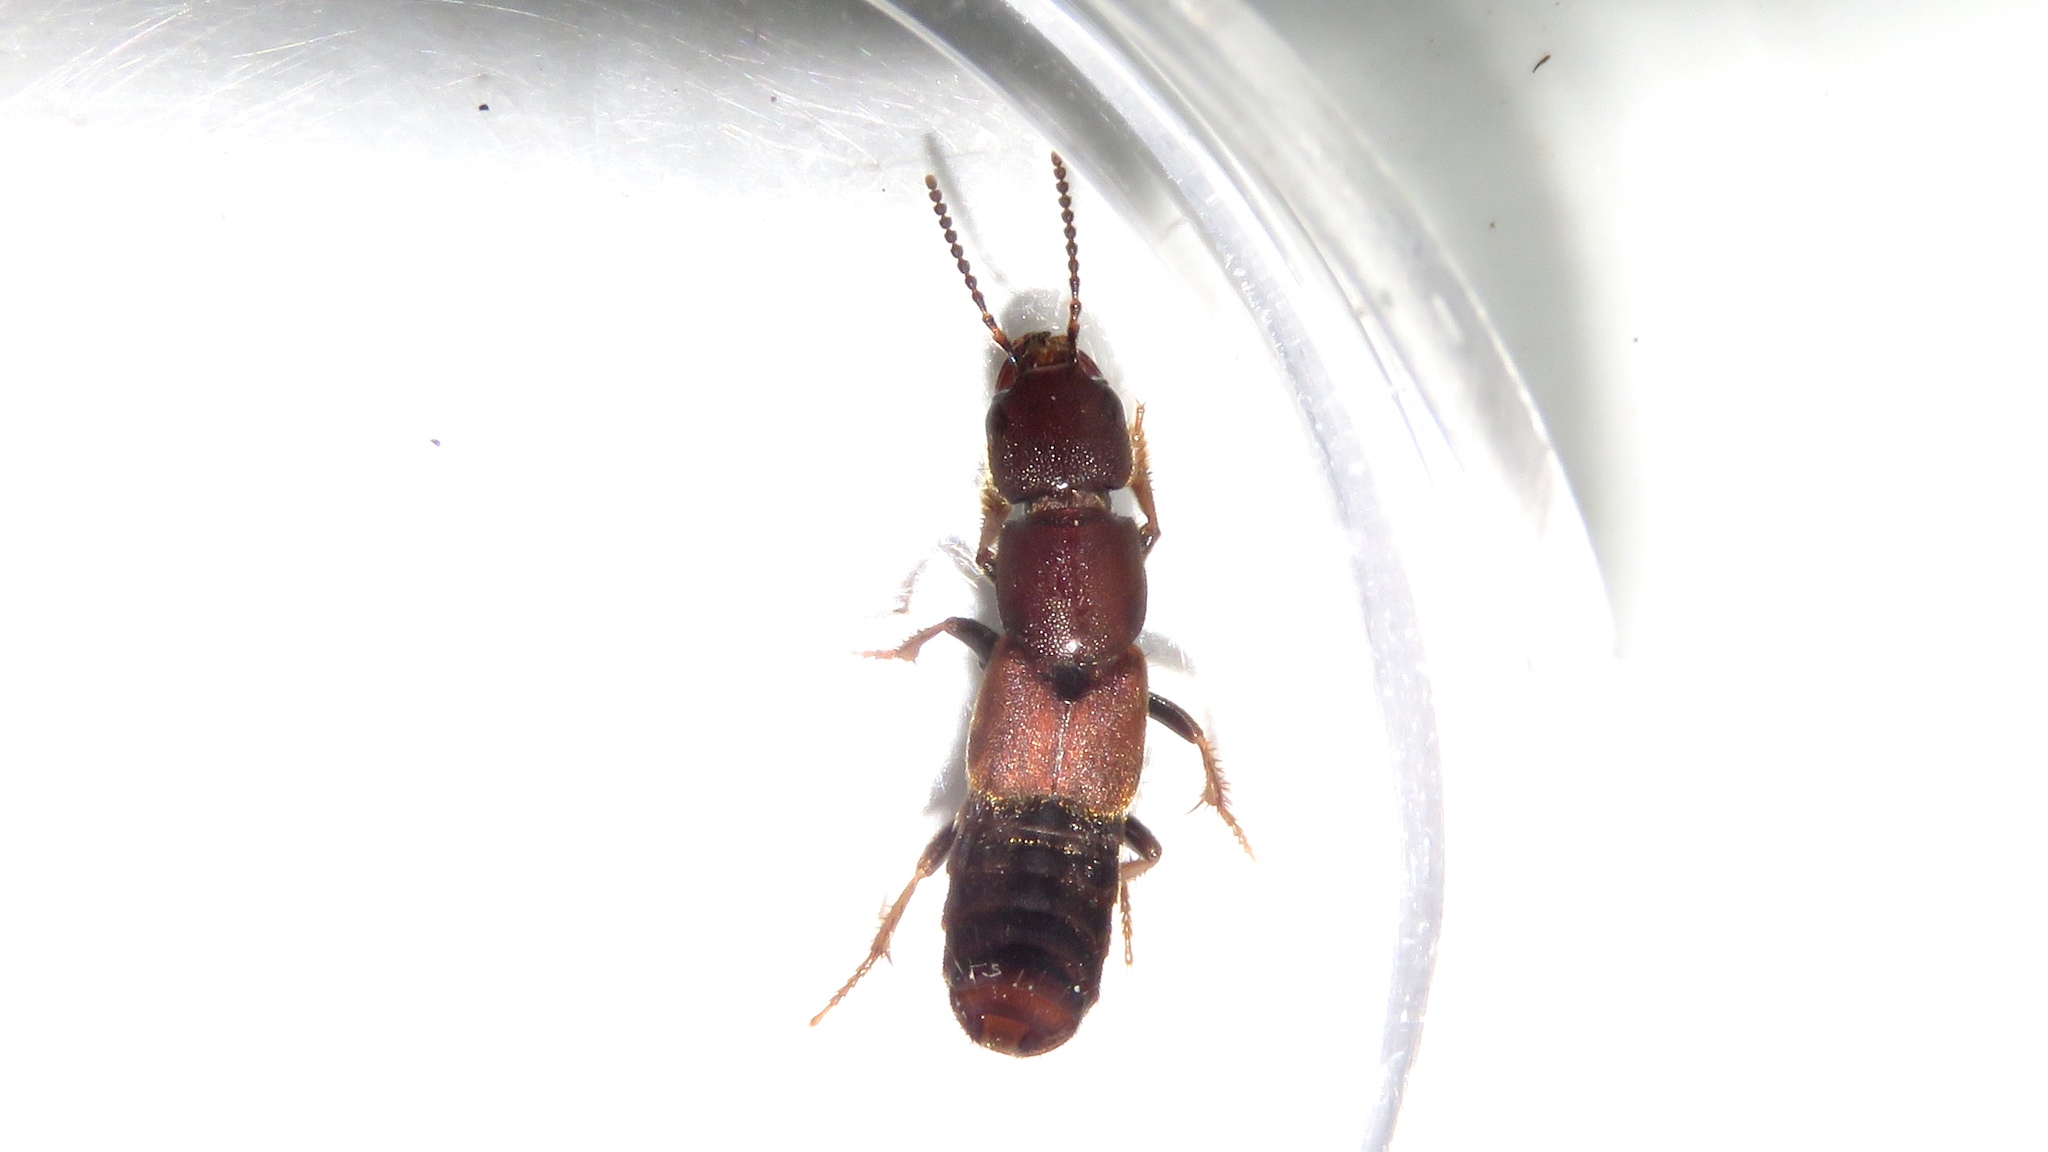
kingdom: Animalia
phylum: Arthropoda
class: Insecta
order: Coleoptera
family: Staphylinidae
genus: Platydracus
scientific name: Platydracus cinnamopterus
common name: Cinnamon rove beetle
